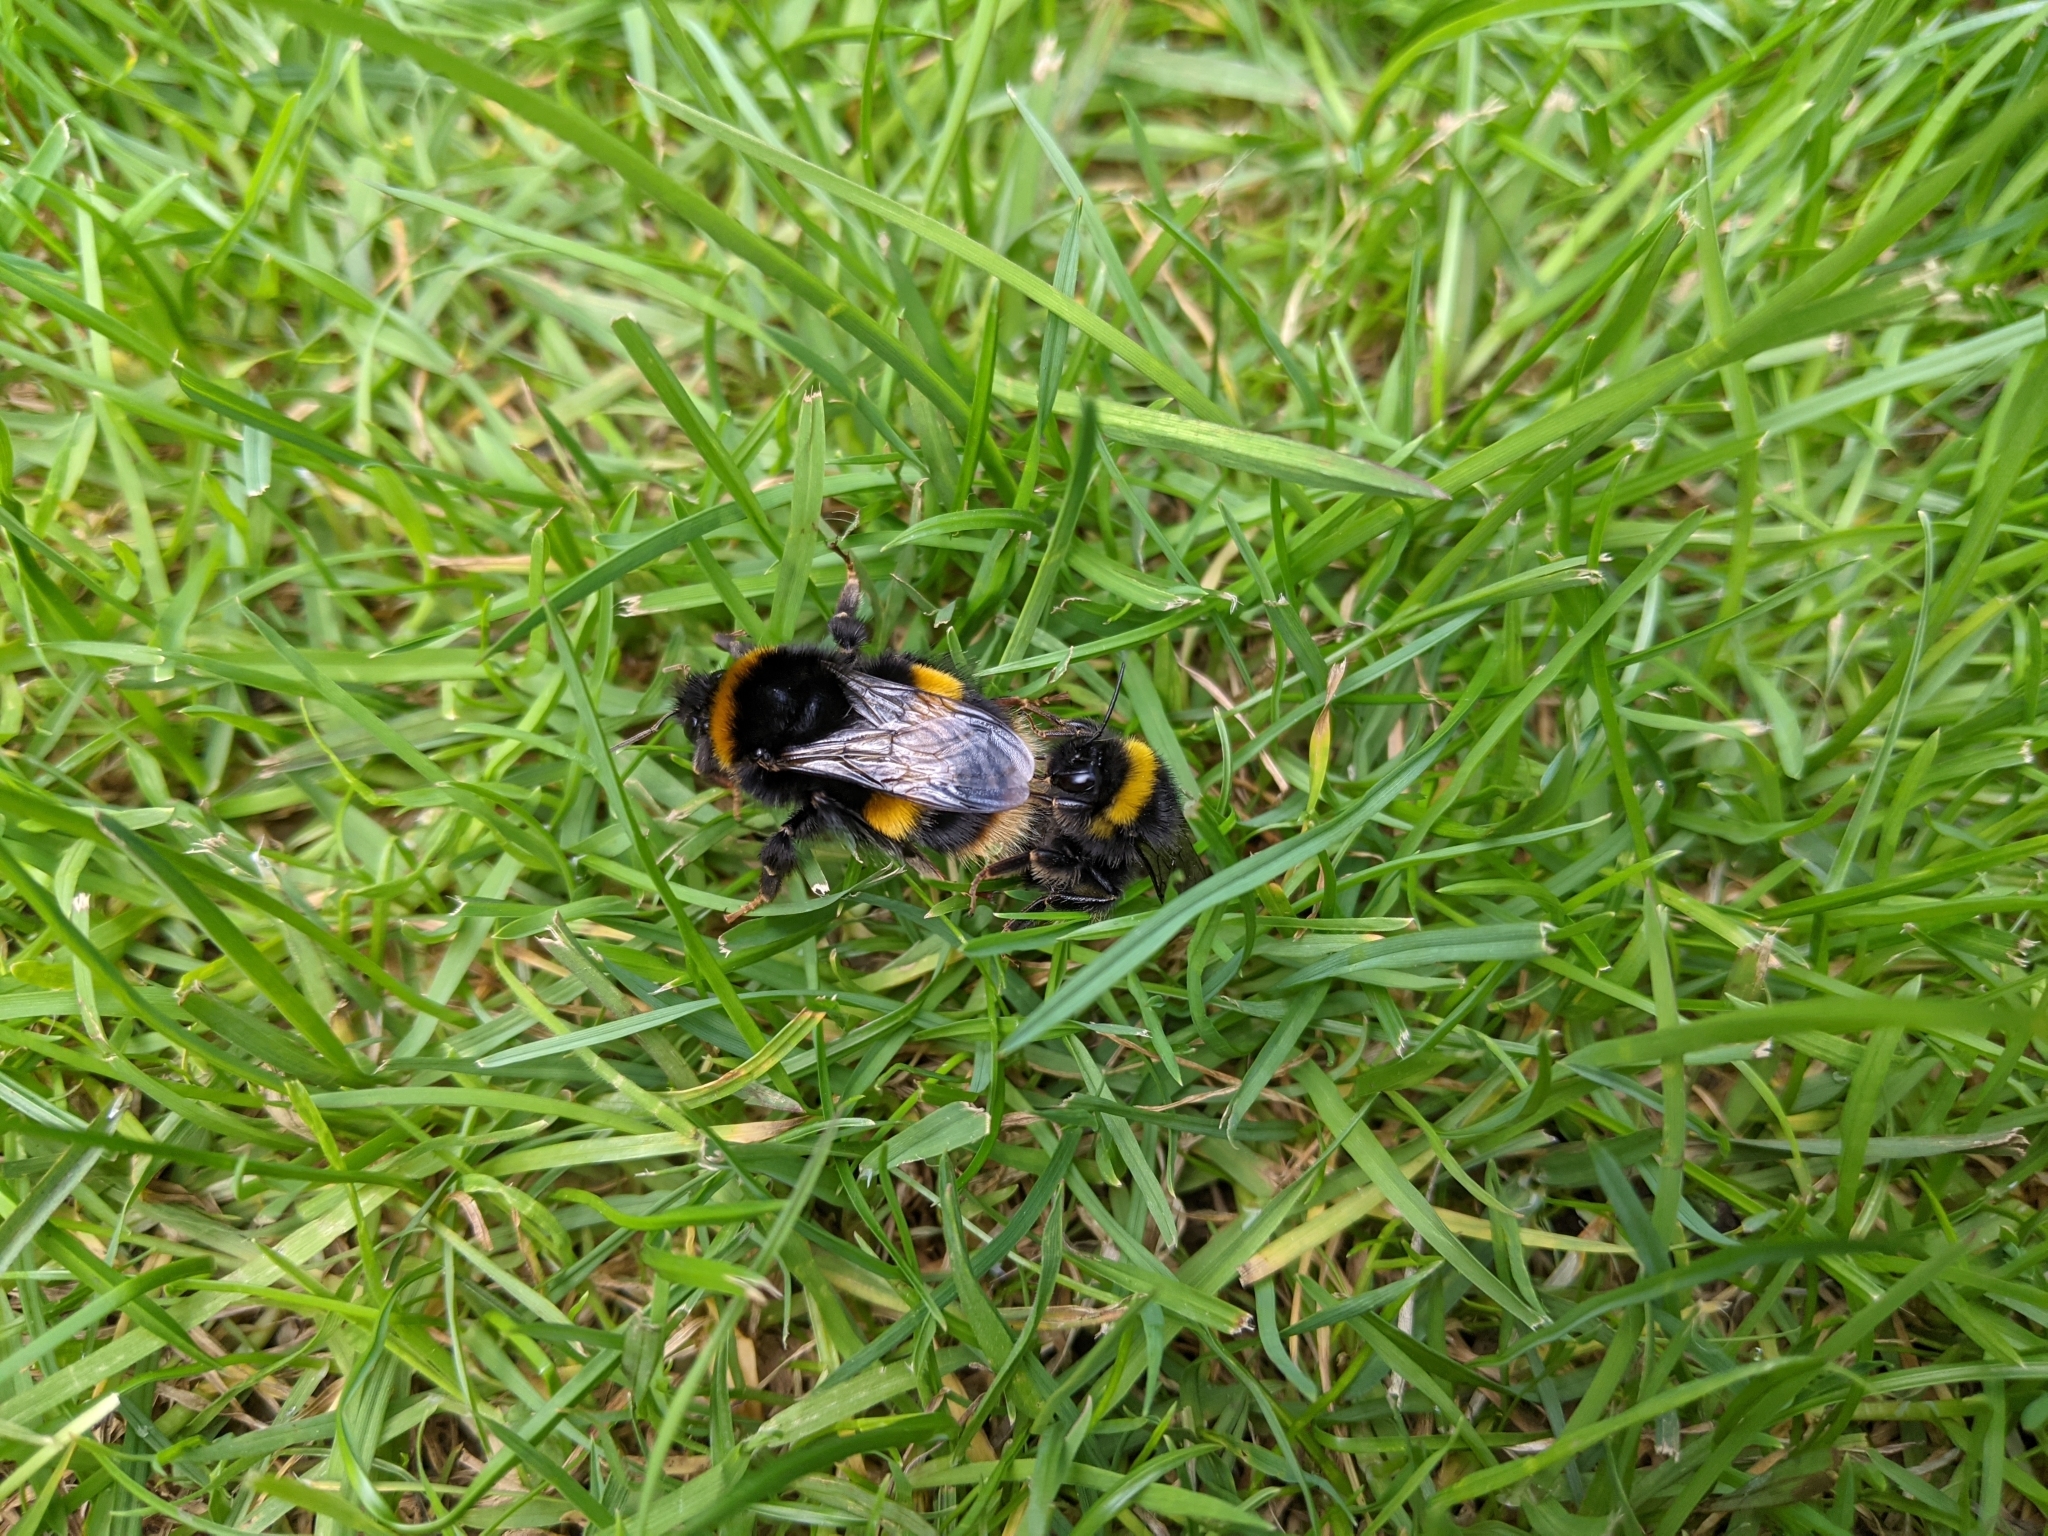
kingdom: Animalia
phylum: Arthropoda
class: Insecta
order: Hymenoptera
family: Apidae
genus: Bombus
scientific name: Bombus terrestris
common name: Buff-tailed bumblebee
